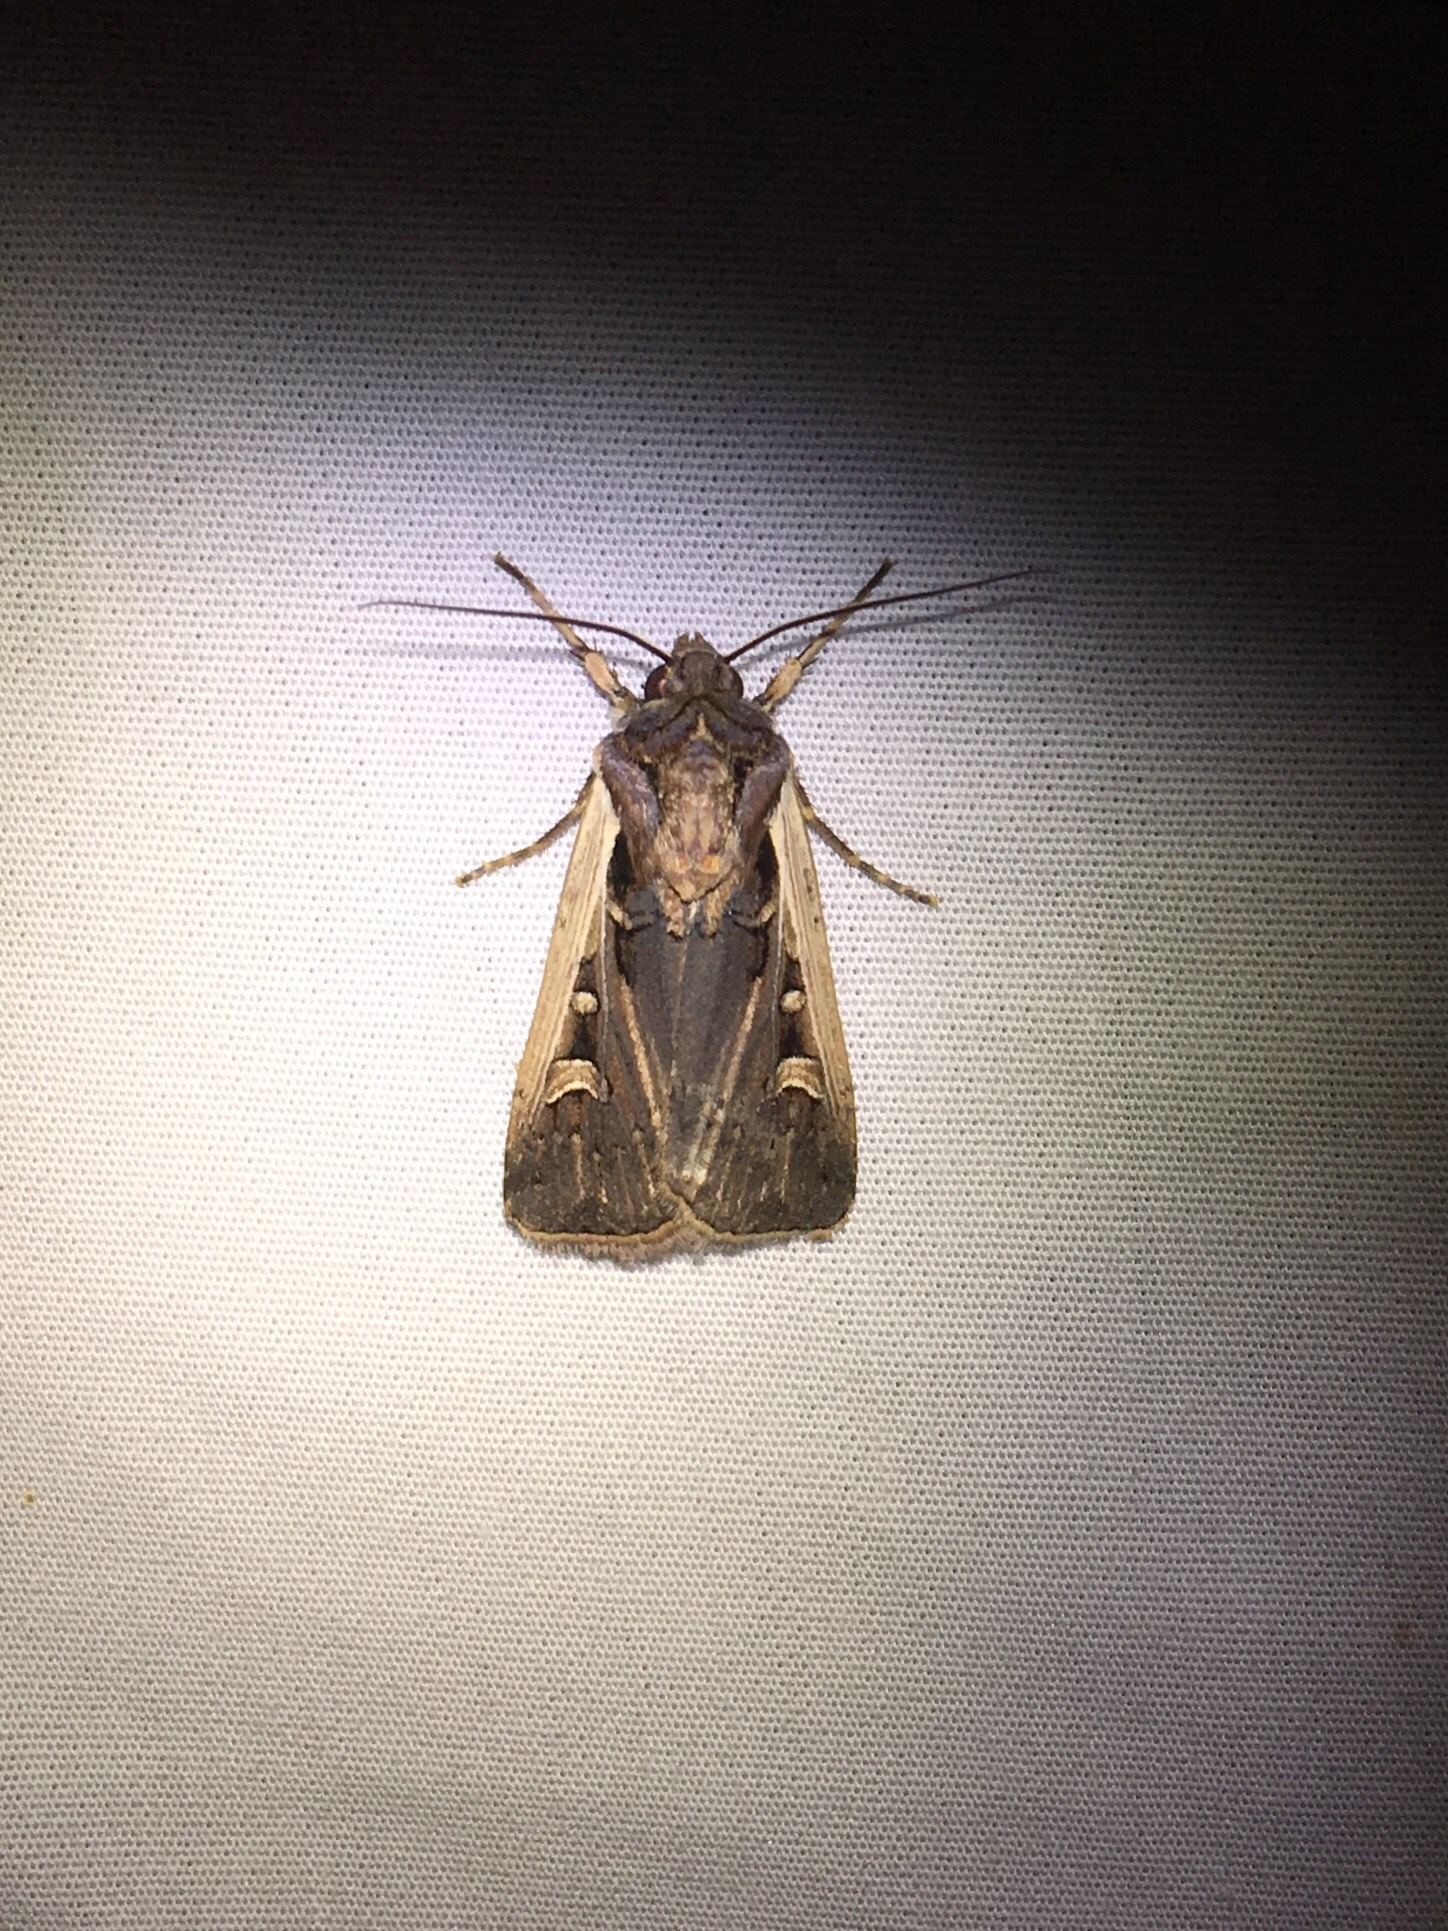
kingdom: Animalia
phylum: Arthropoda
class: Insecta
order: Lepidoptera
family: Noctuidae
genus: Striacosta
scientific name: Striacosta albicosta
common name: Western bean cutworm moth
